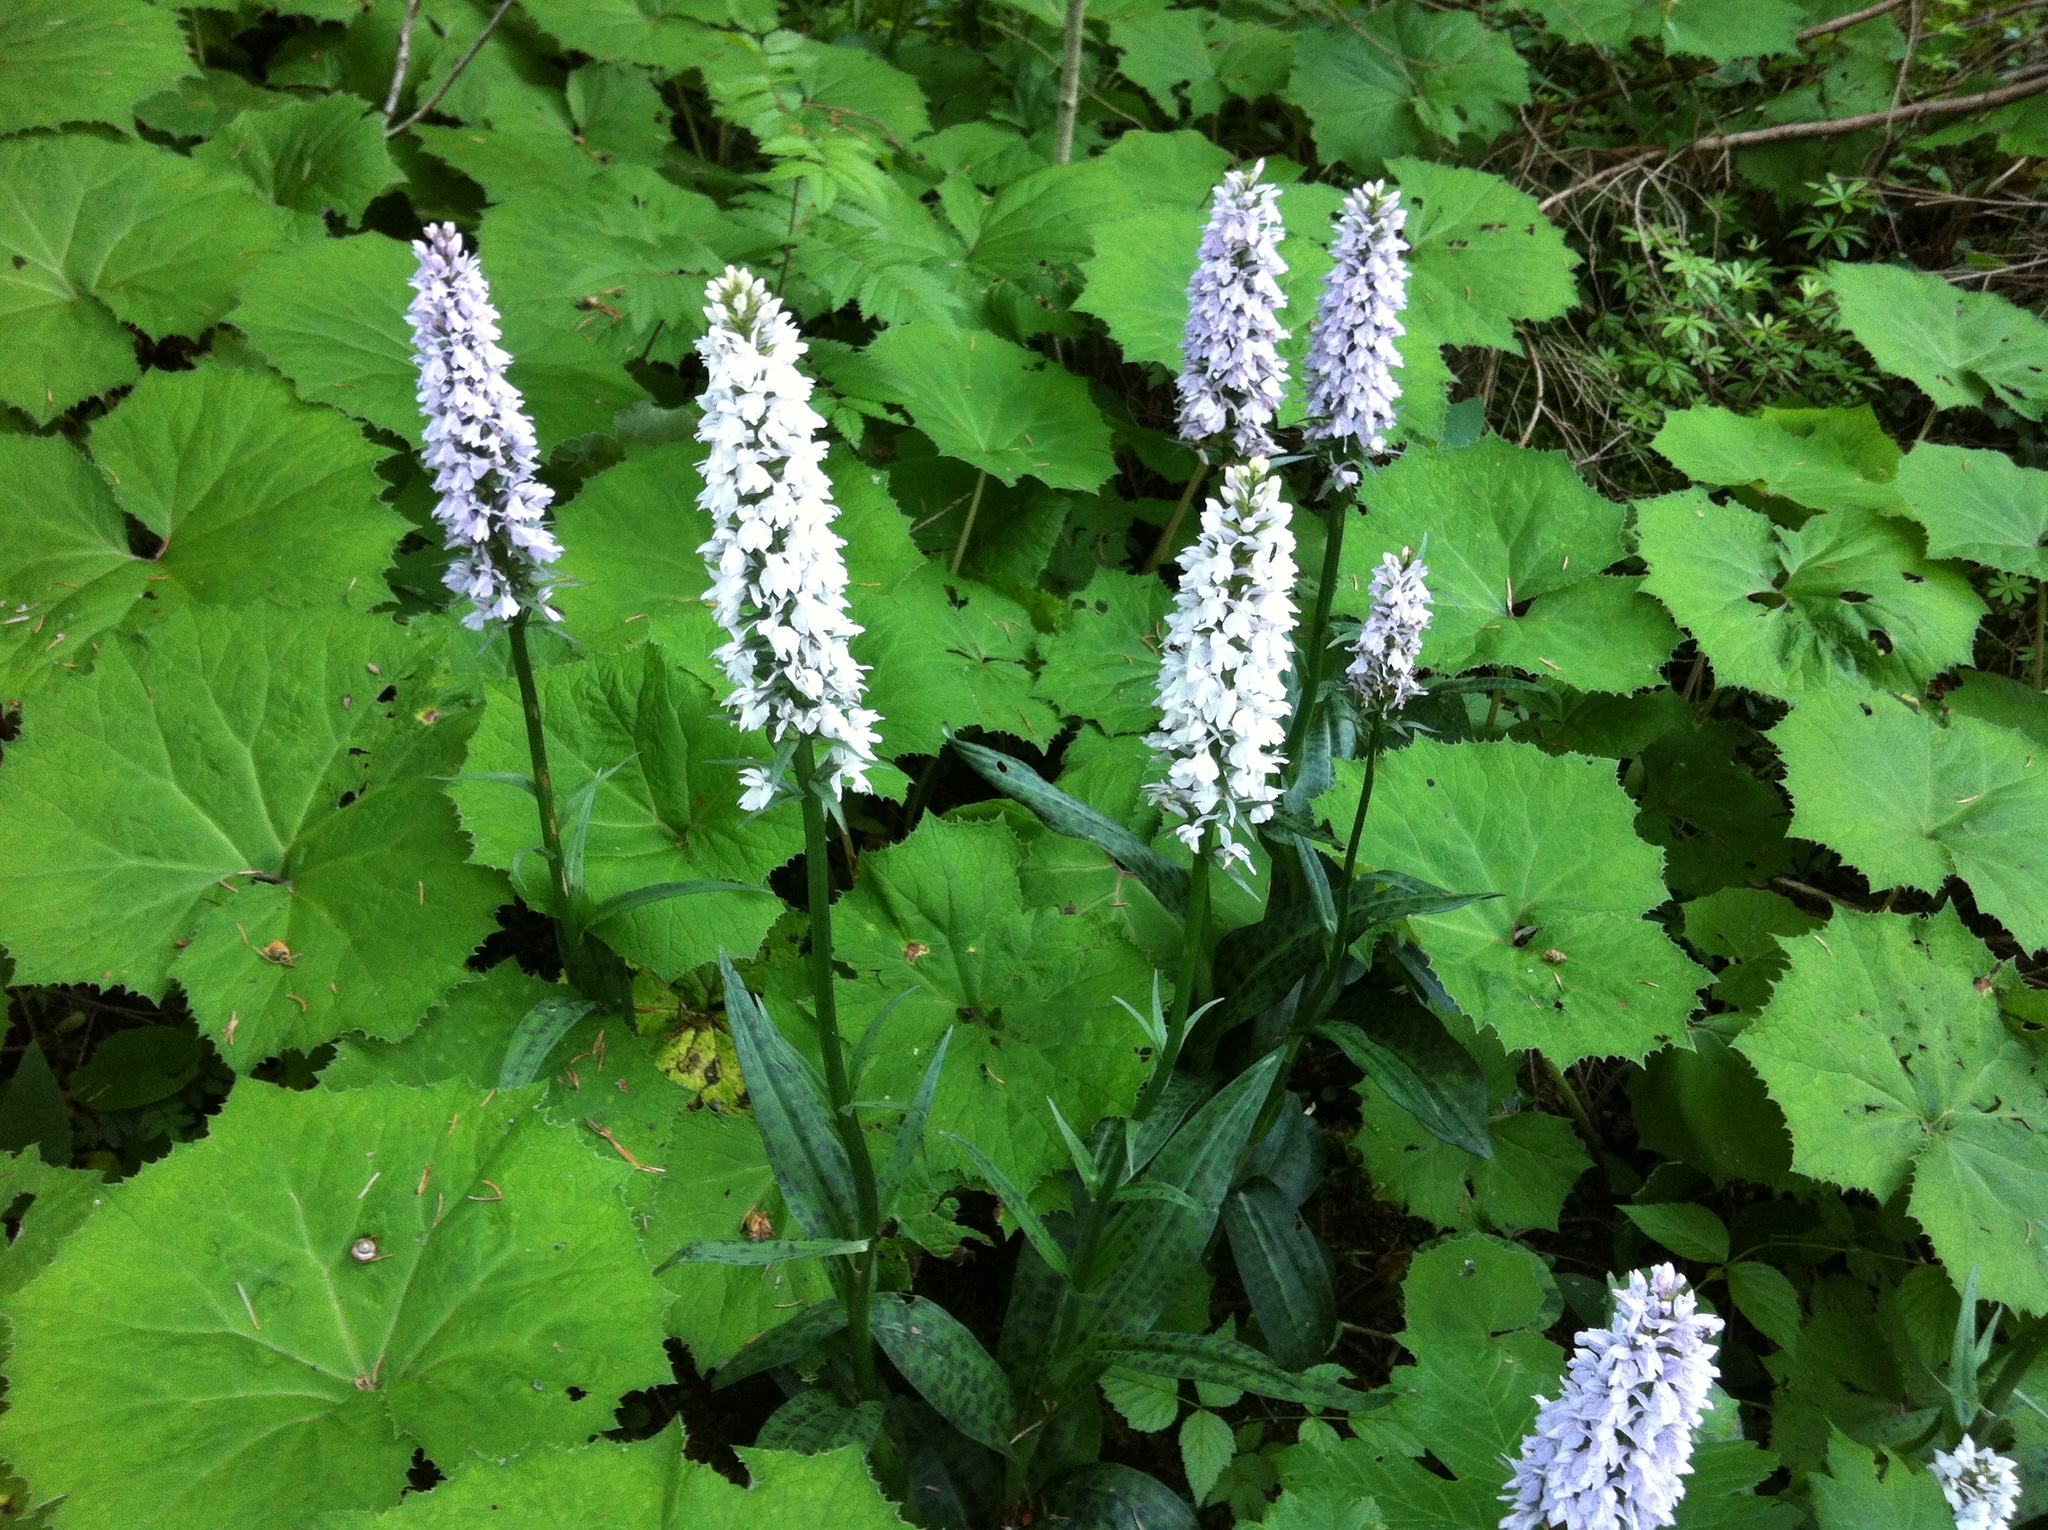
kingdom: Plantae
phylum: Tracheophyta
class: Liliopsida
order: Asparagales
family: Orchidaceae
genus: Dactylorhiza
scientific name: Dactylorhiza maculata
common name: Heath spotted-orchid
